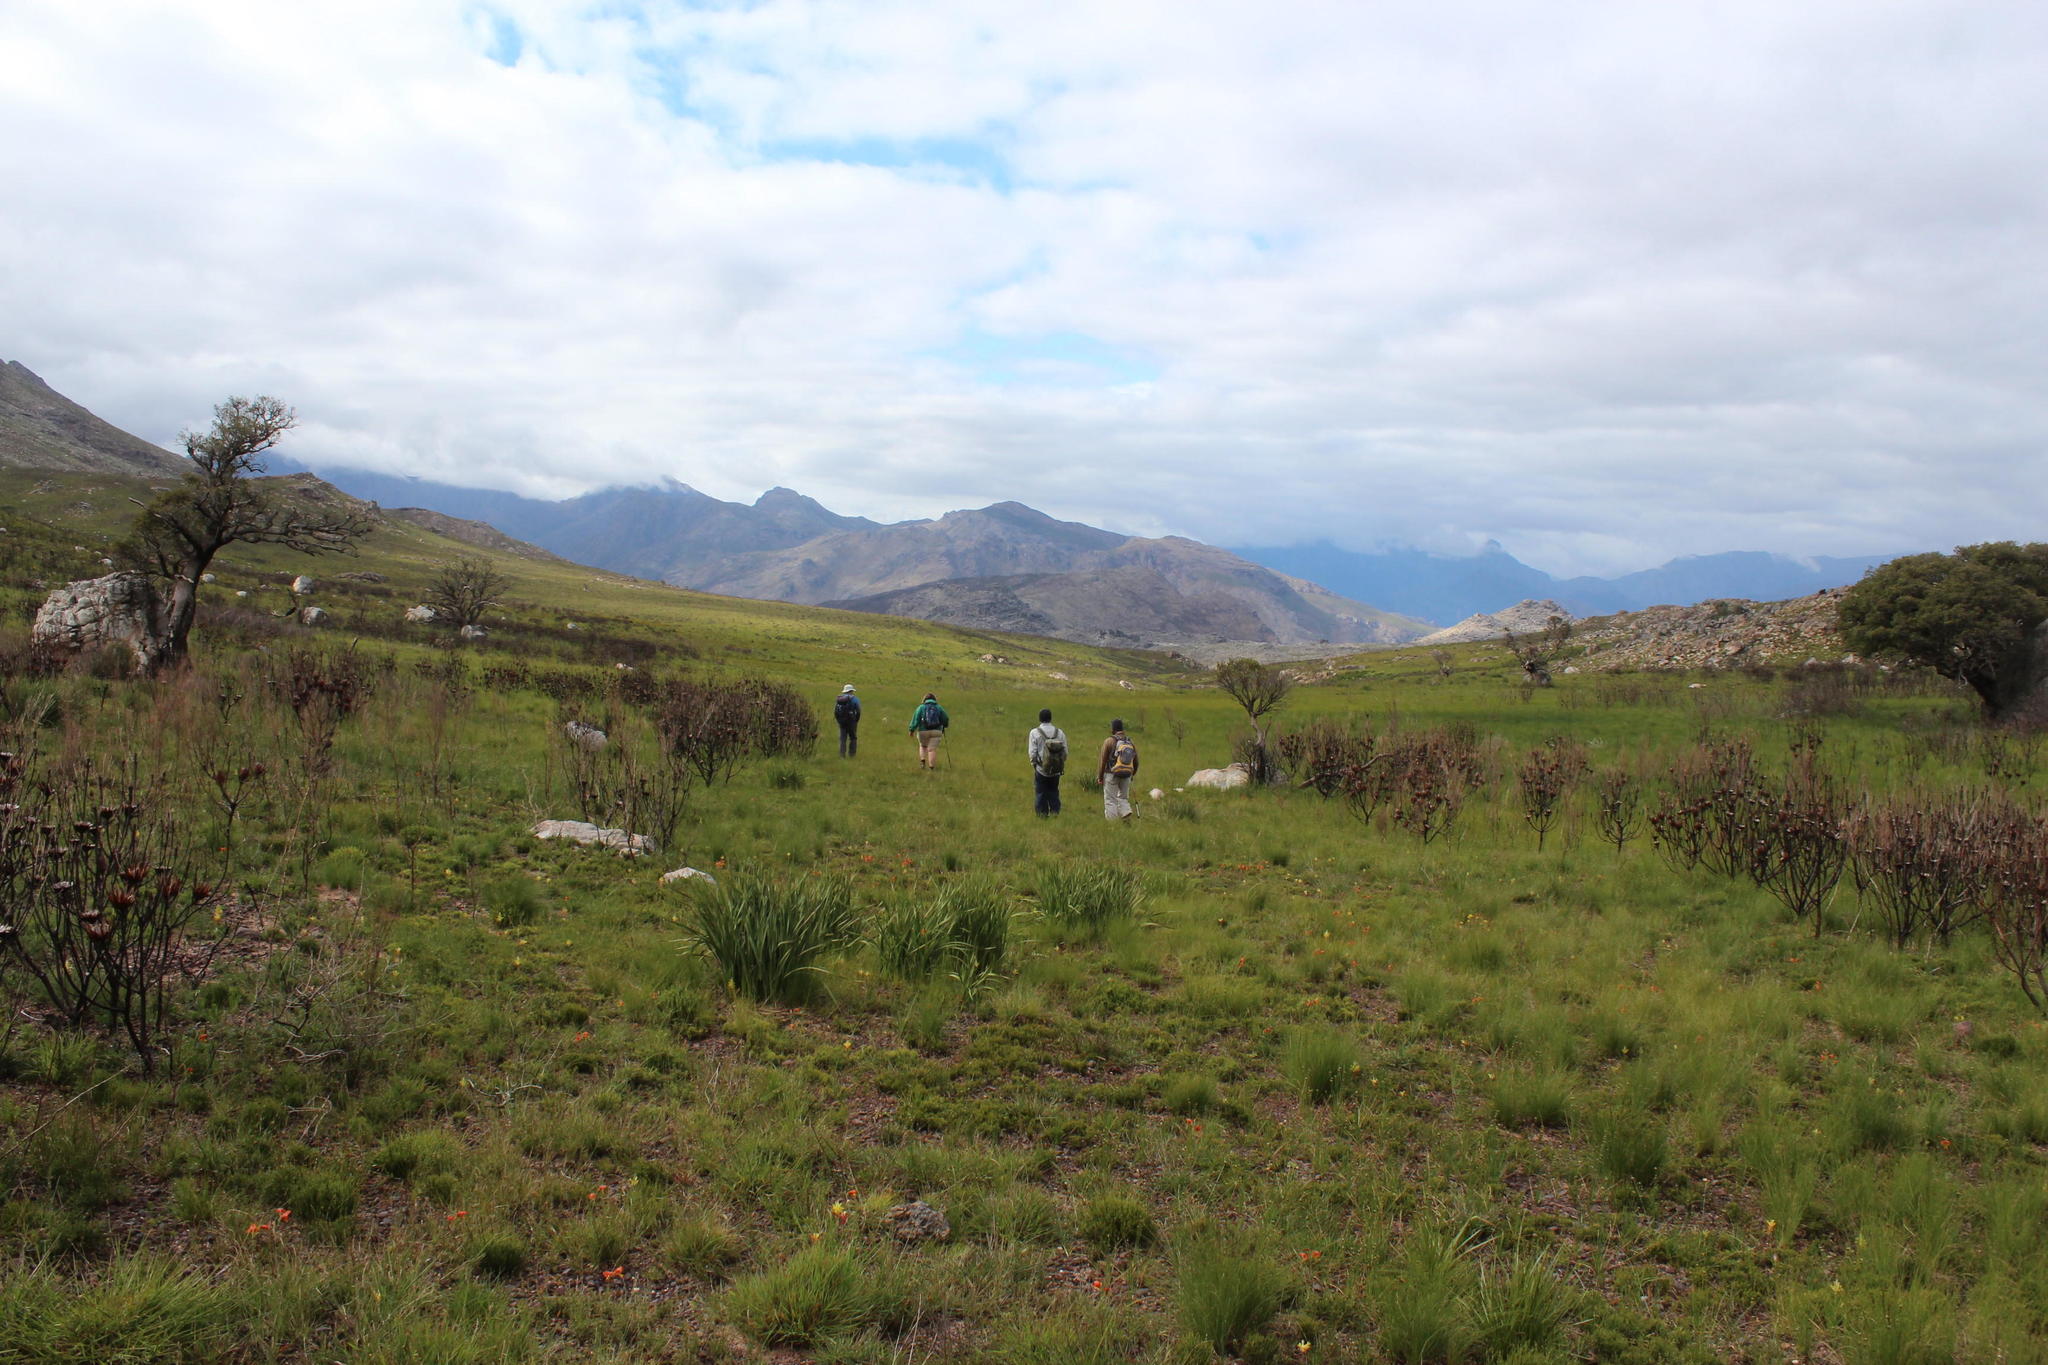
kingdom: Plantae
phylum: Tracheophyta
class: Magnoliopsida
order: Proteales
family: Proteaceae
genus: Protea
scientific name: Protea repens
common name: Sugarbush
